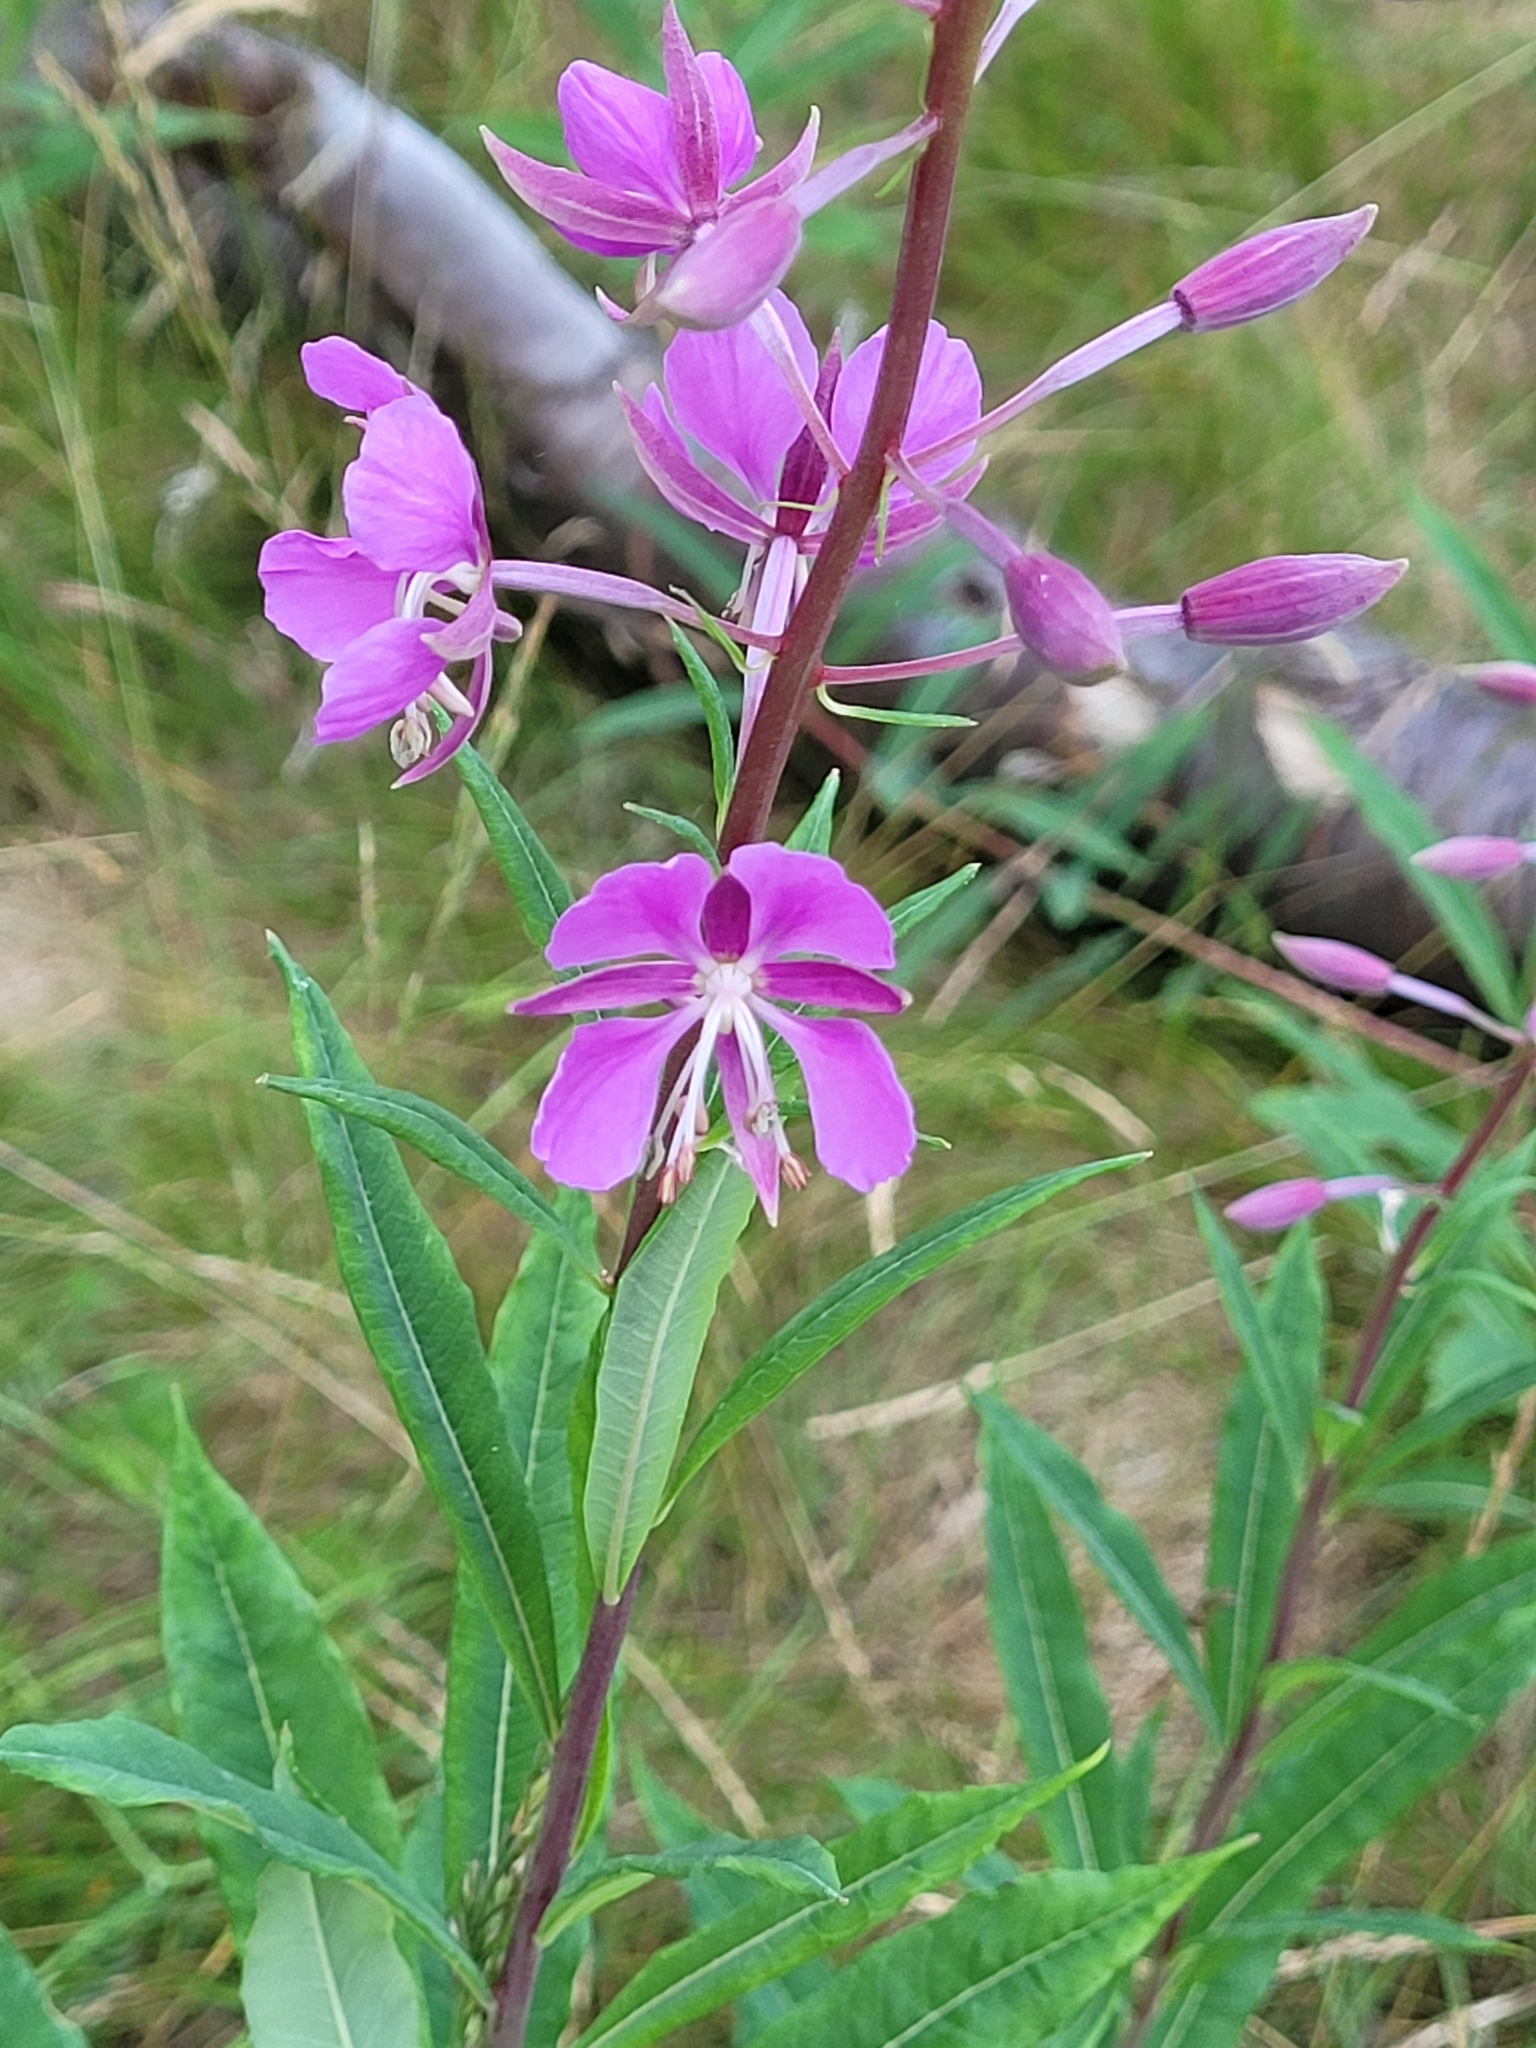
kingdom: Plantae
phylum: Tracheophyta
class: Magnoliopsida
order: Myrtales
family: Onagraceae
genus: Chamaenerion
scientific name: Chamaenerion angustifolium
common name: Fireweed
